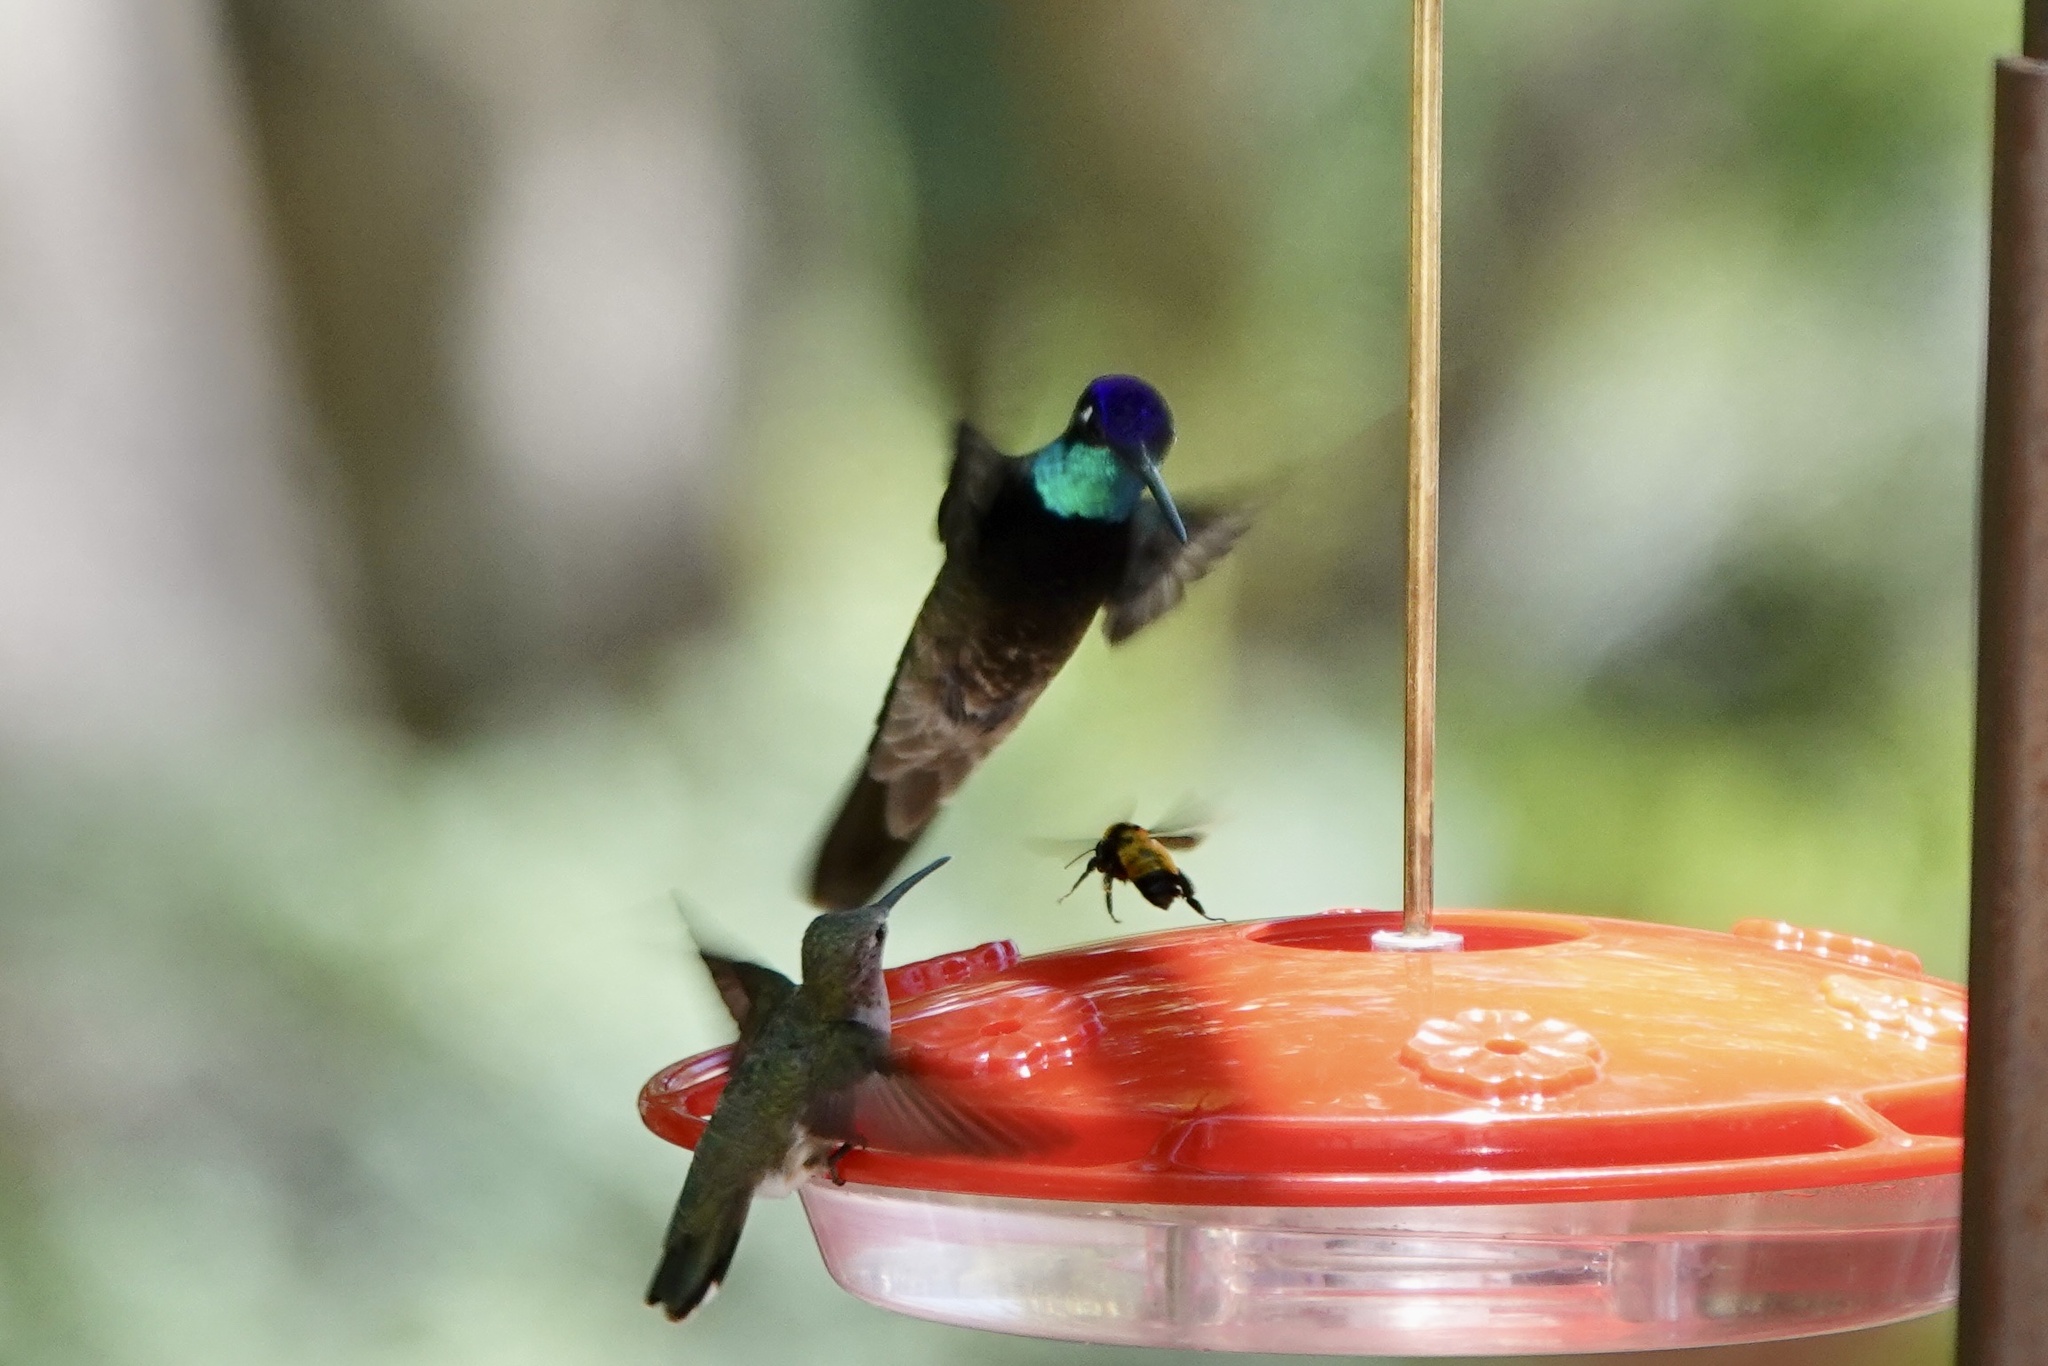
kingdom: Animalia
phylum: Chordata
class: Aves
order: Apodiformes
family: Trochilidae
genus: Eugenes
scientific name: Eugenes fulgens
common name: Magnificent hummingbird
